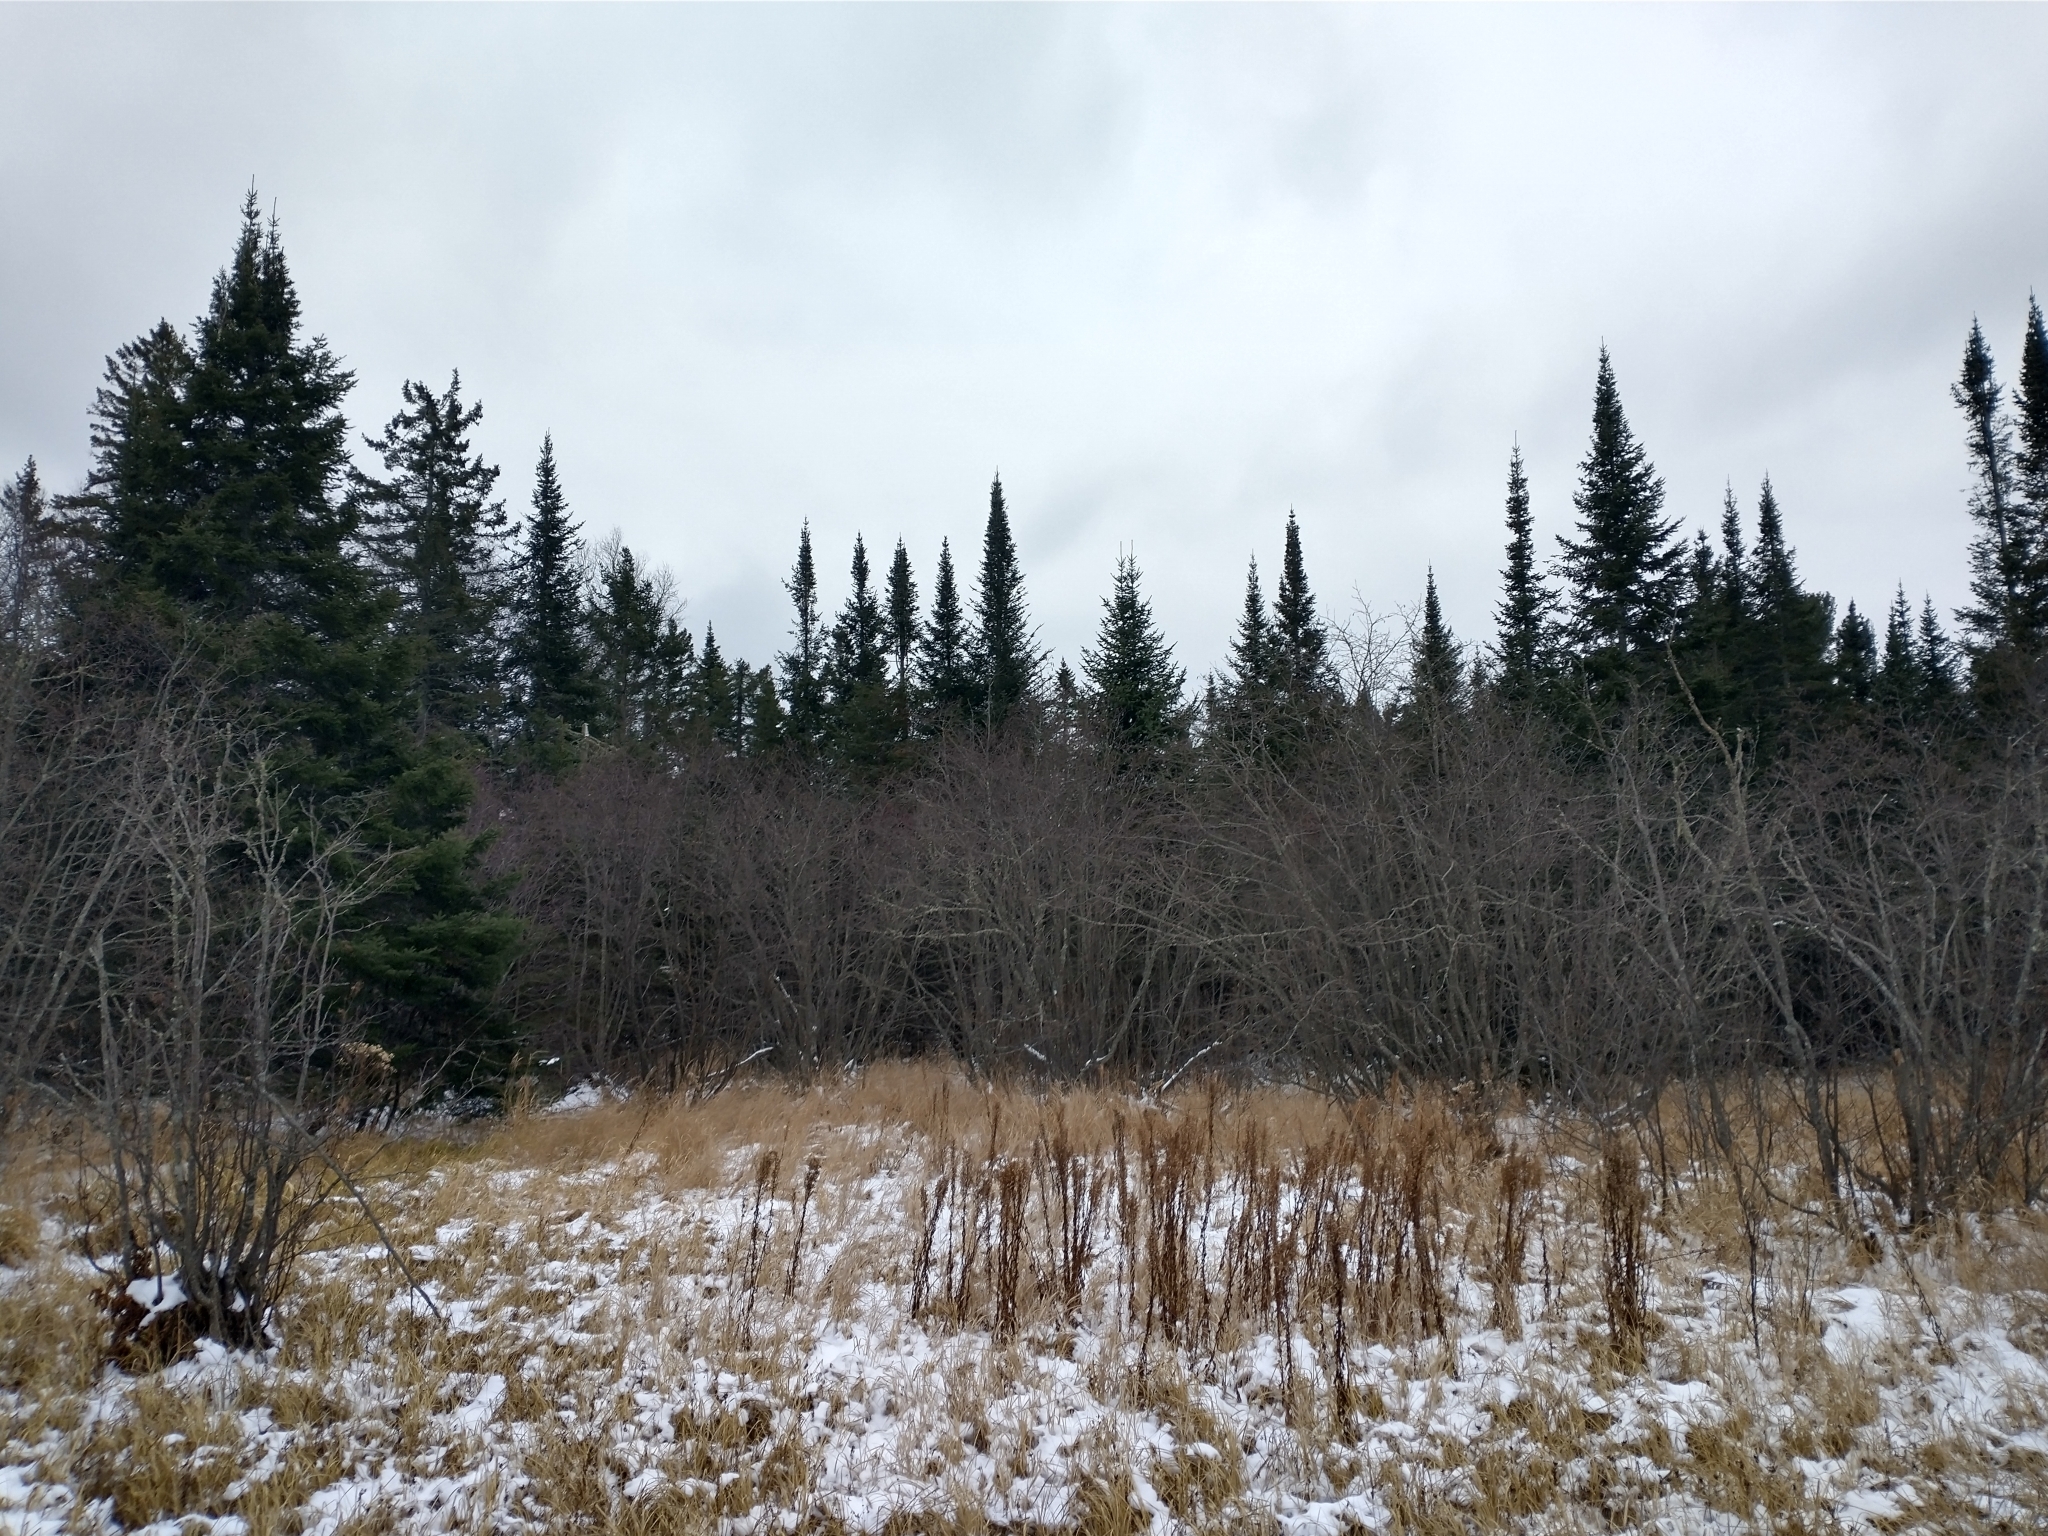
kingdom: Plantae
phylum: Tracheophyta
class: Pinopsida
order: Pinales
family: Pinaceae
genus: Picea
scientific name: Picea mariana
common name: Black spruce
